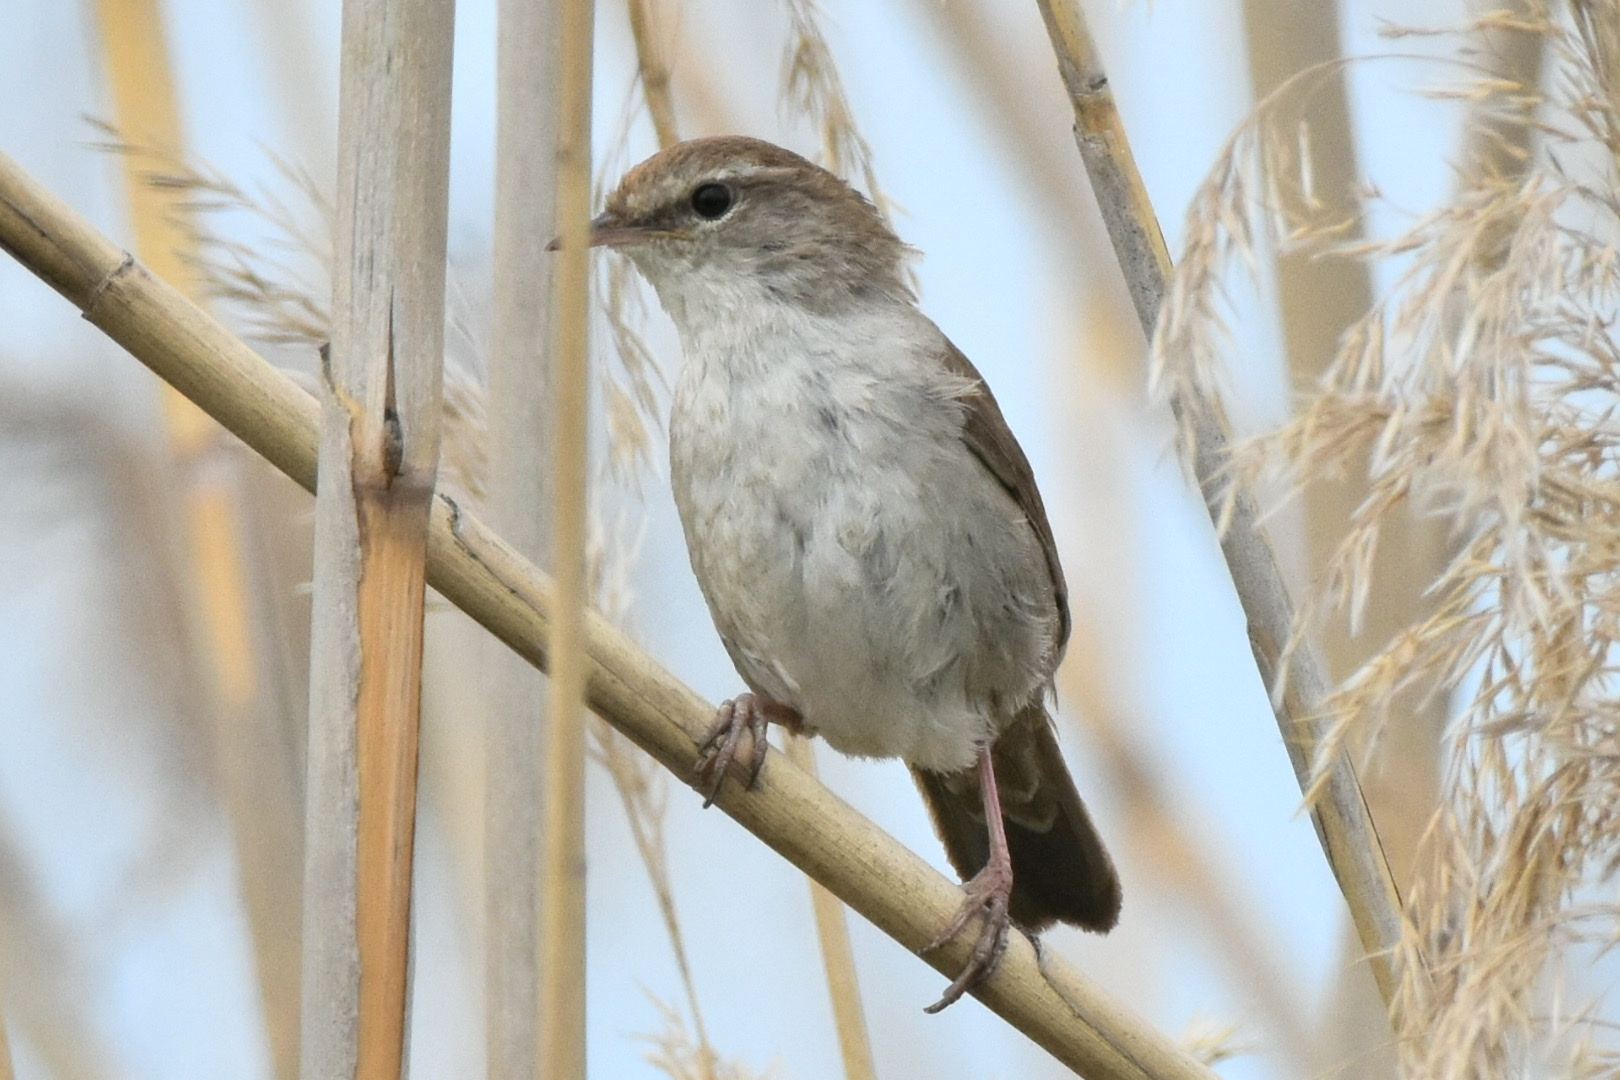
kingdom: Animalia
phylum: Chordata
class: Aves
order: Passeriformes
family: Cettiidae
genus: Cettia
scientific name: Cettia cetti
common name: Cetti's warbler
